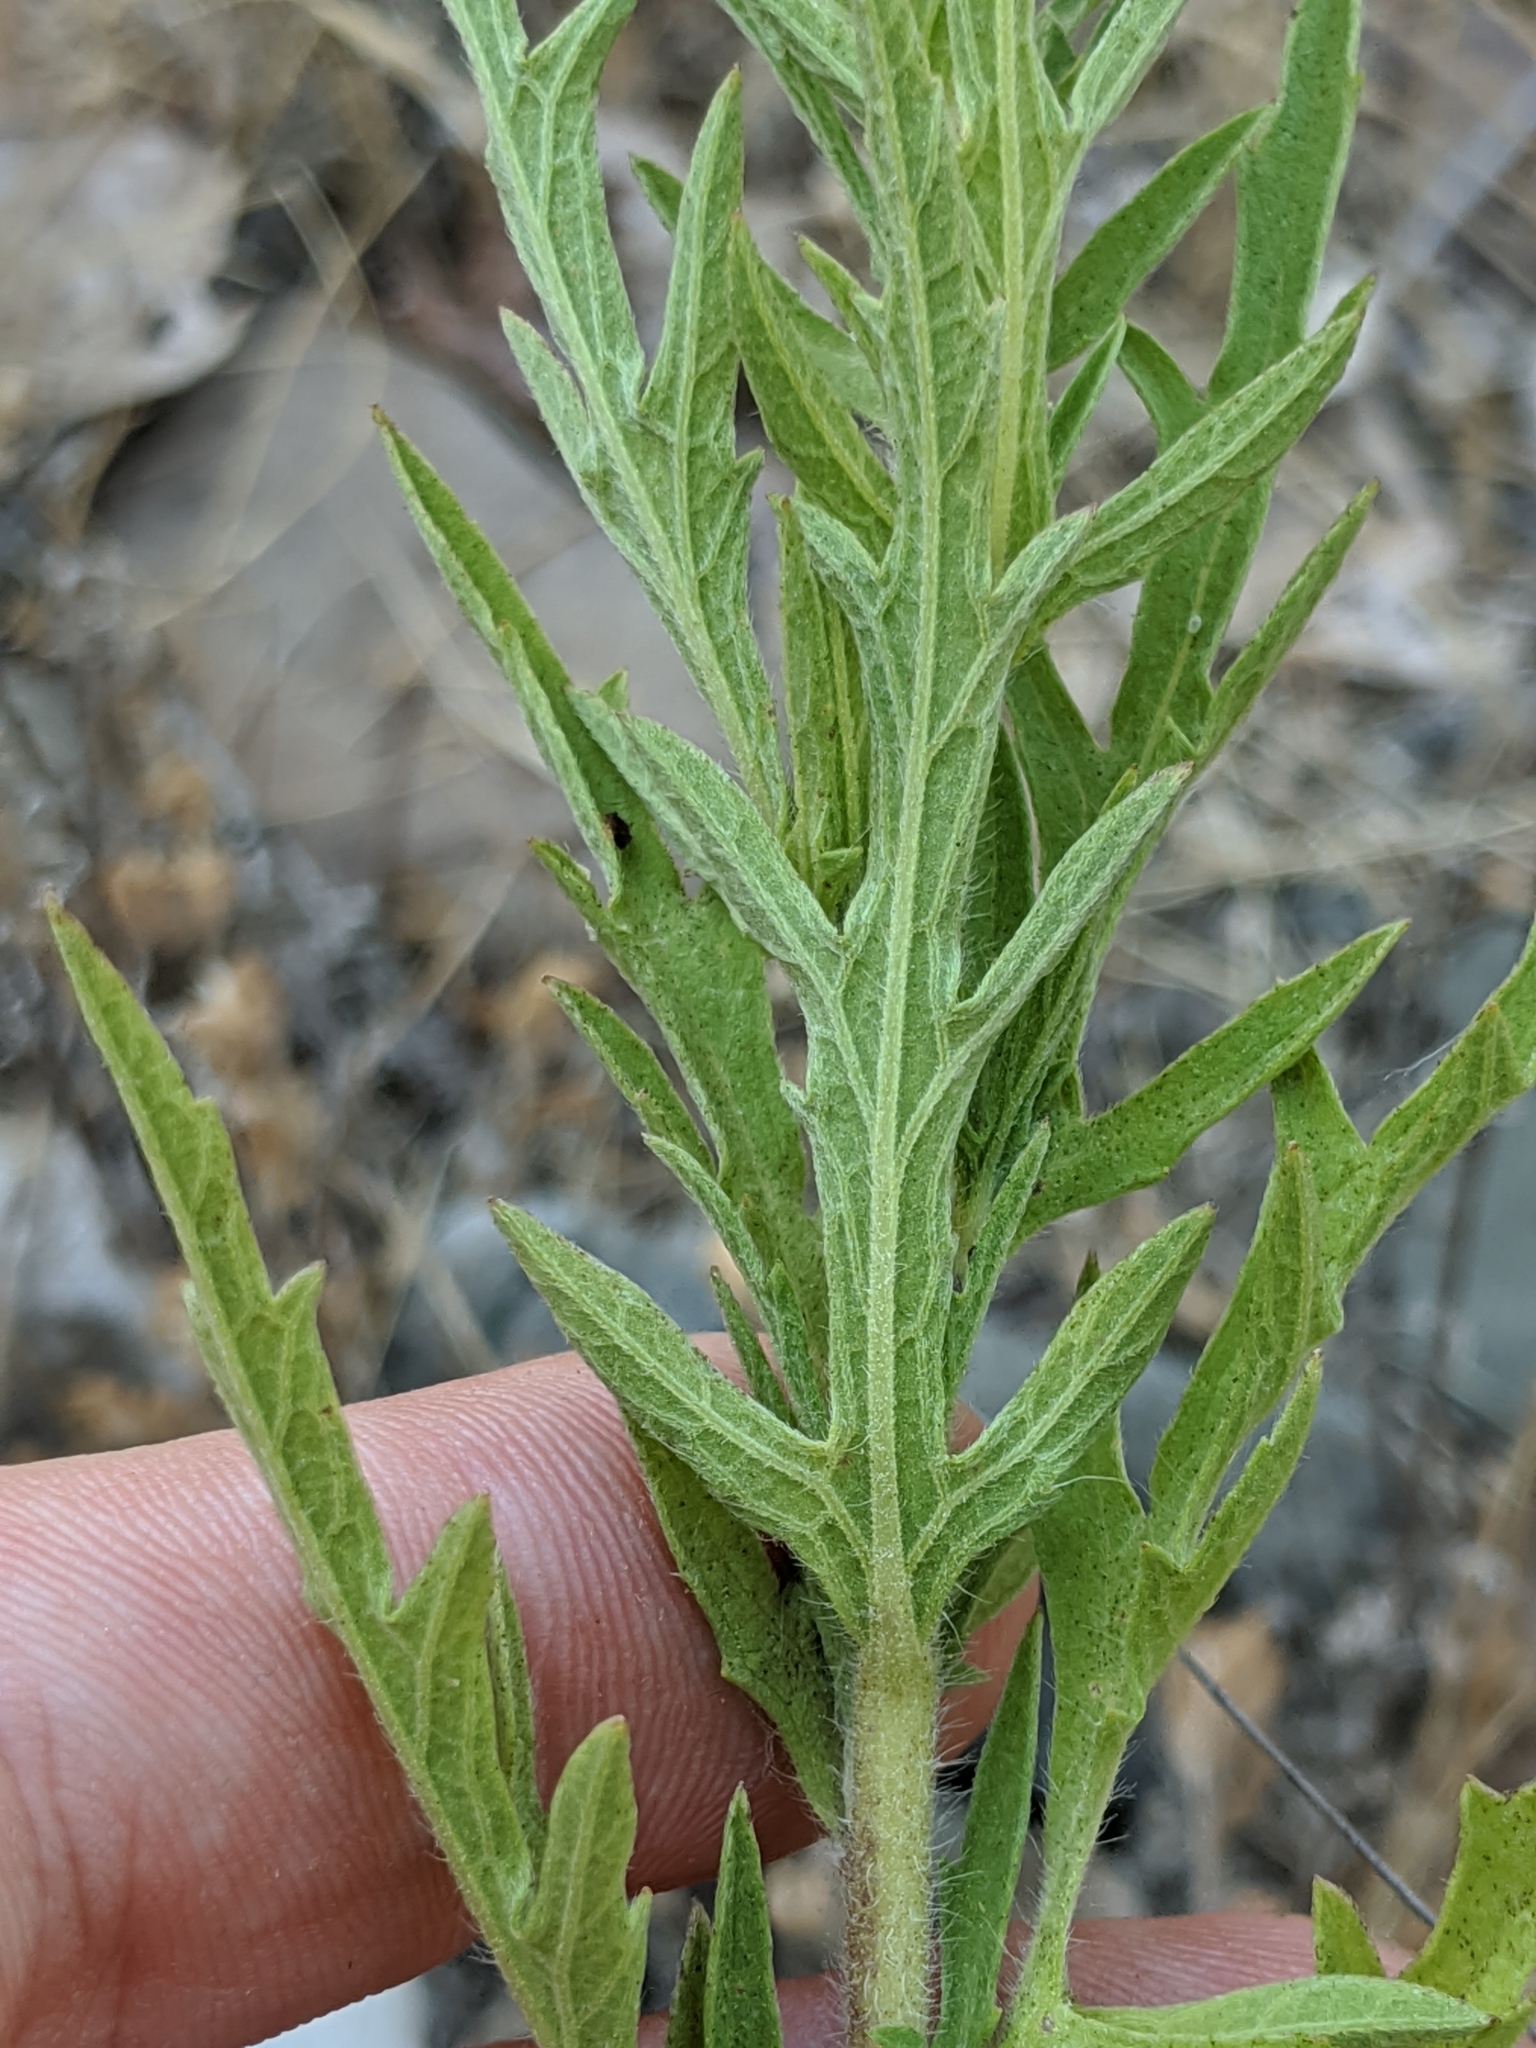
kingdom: Plantae
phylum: Tracheophyta
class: Magnoliopsida
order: Asterales
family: Asteraceae
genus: Ambrosia
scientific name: Ambrosia psilostachya
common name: Perennial ragweed
